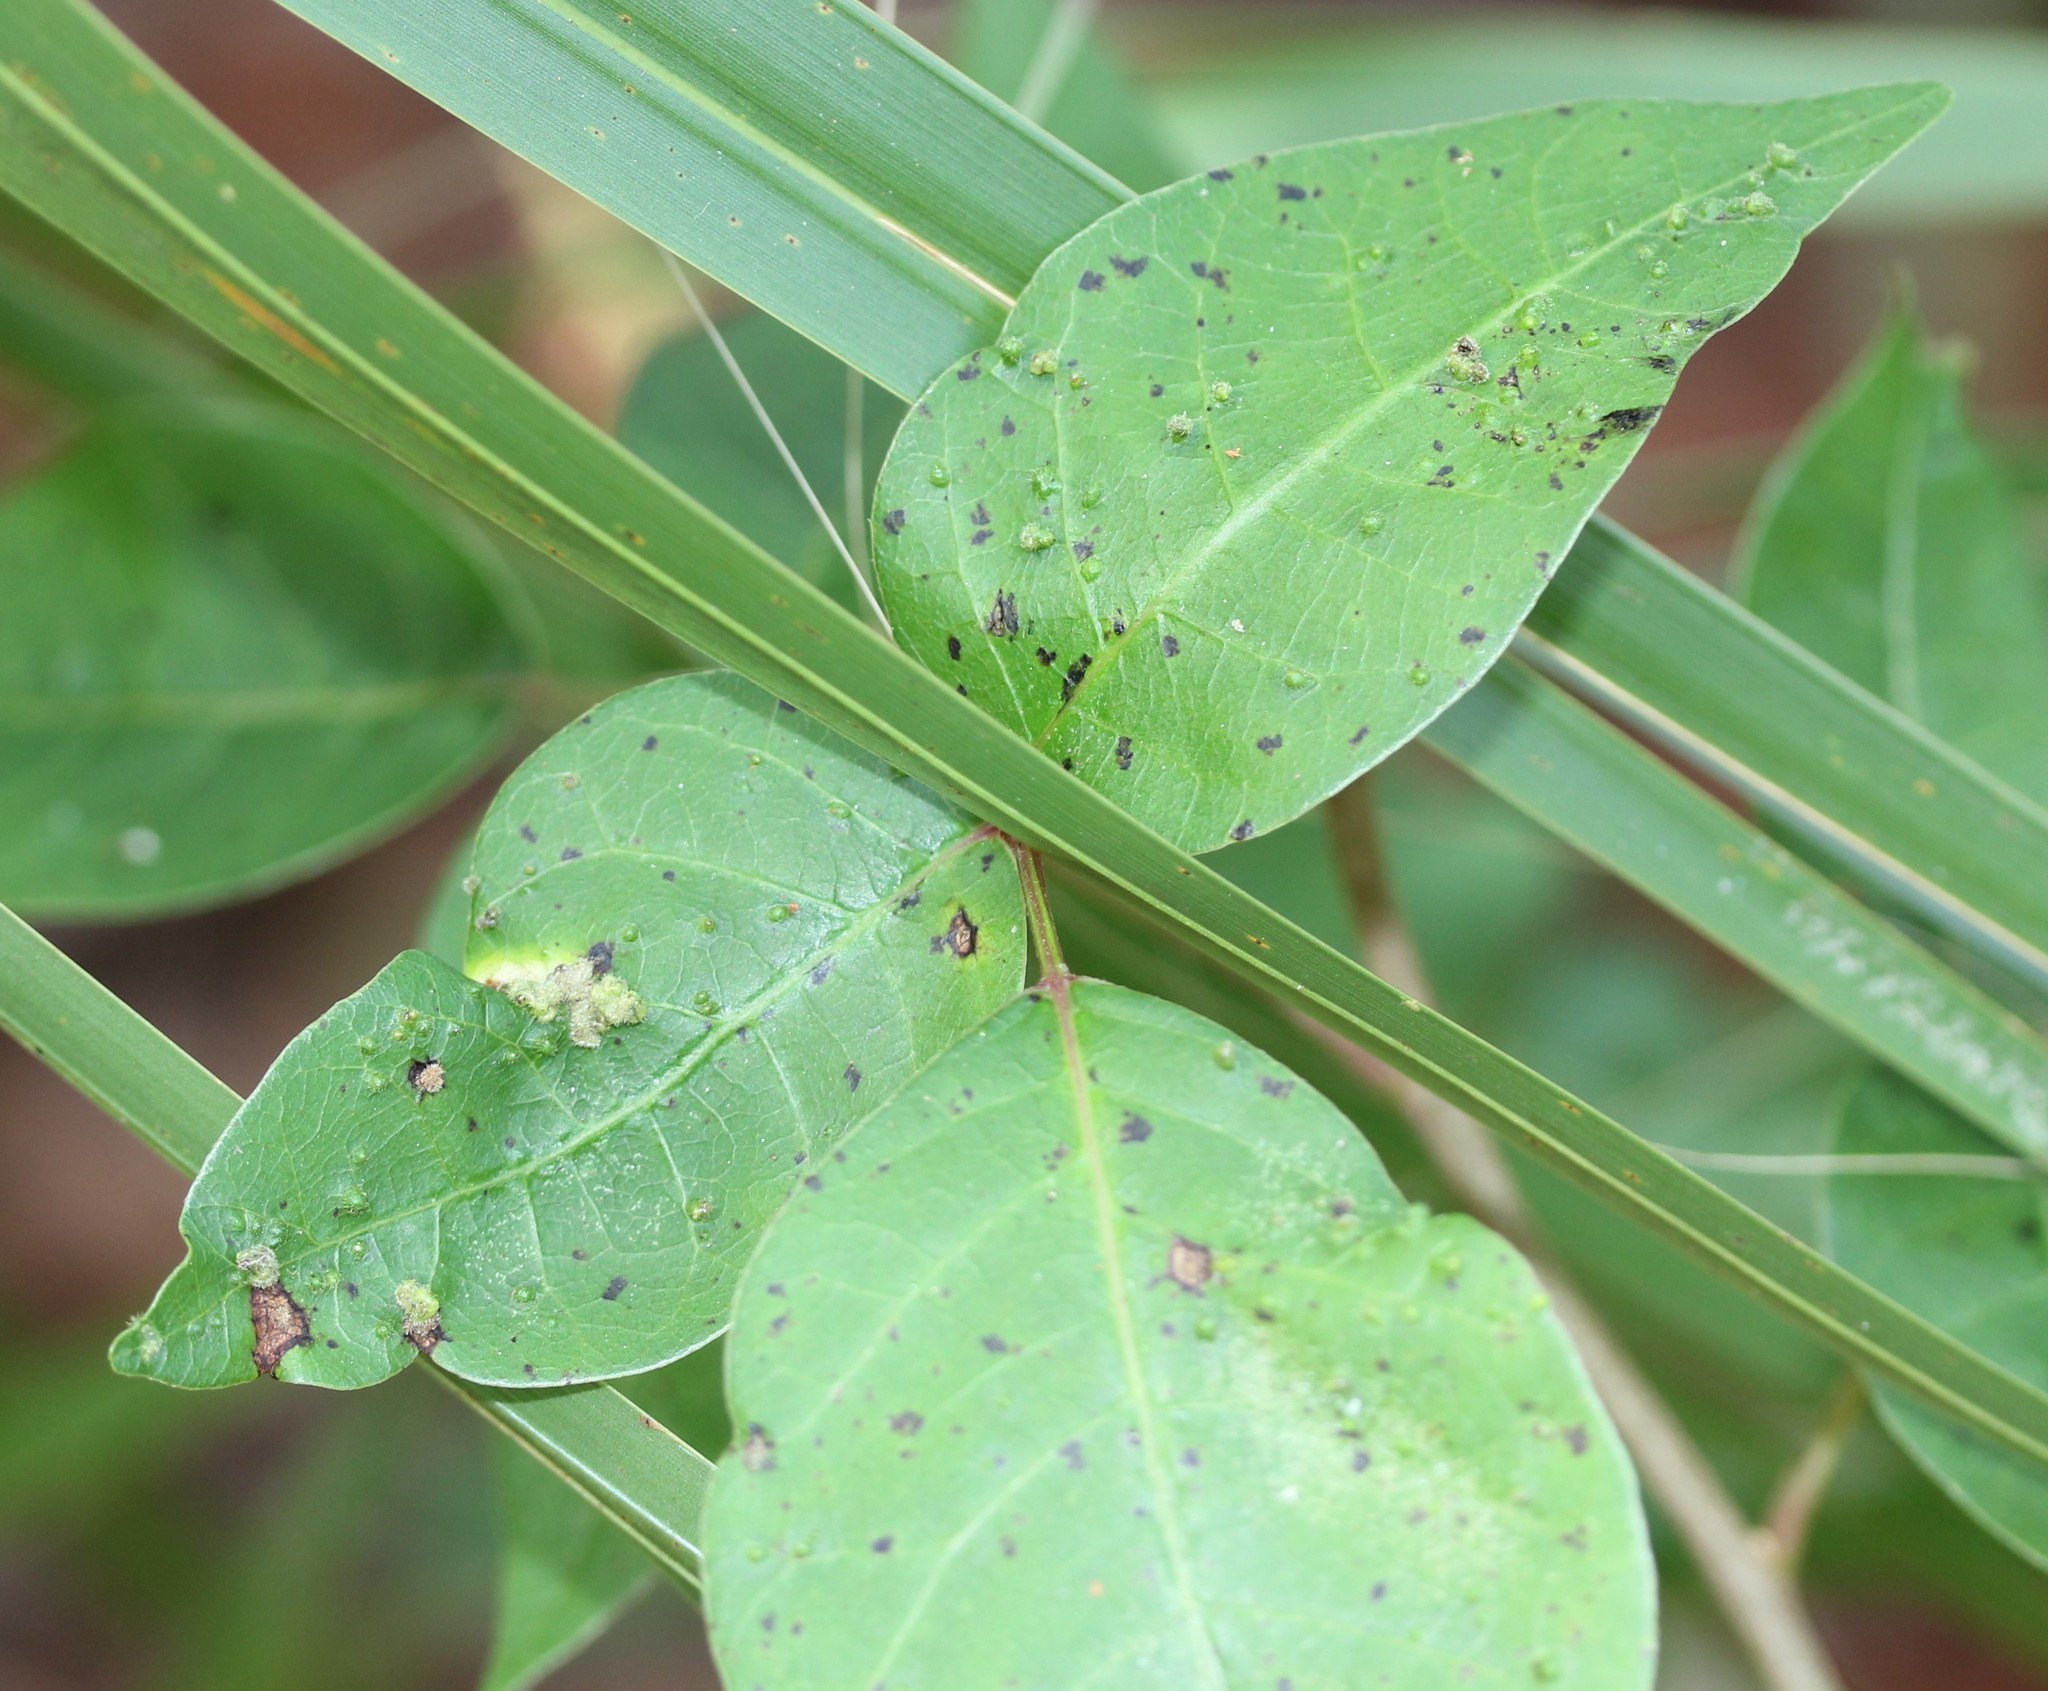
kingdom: Animalia
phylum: Arthropoda
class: Arachnida
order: Trombidiformes
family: Eriophyidae
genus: Aculops
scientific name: Aculops
